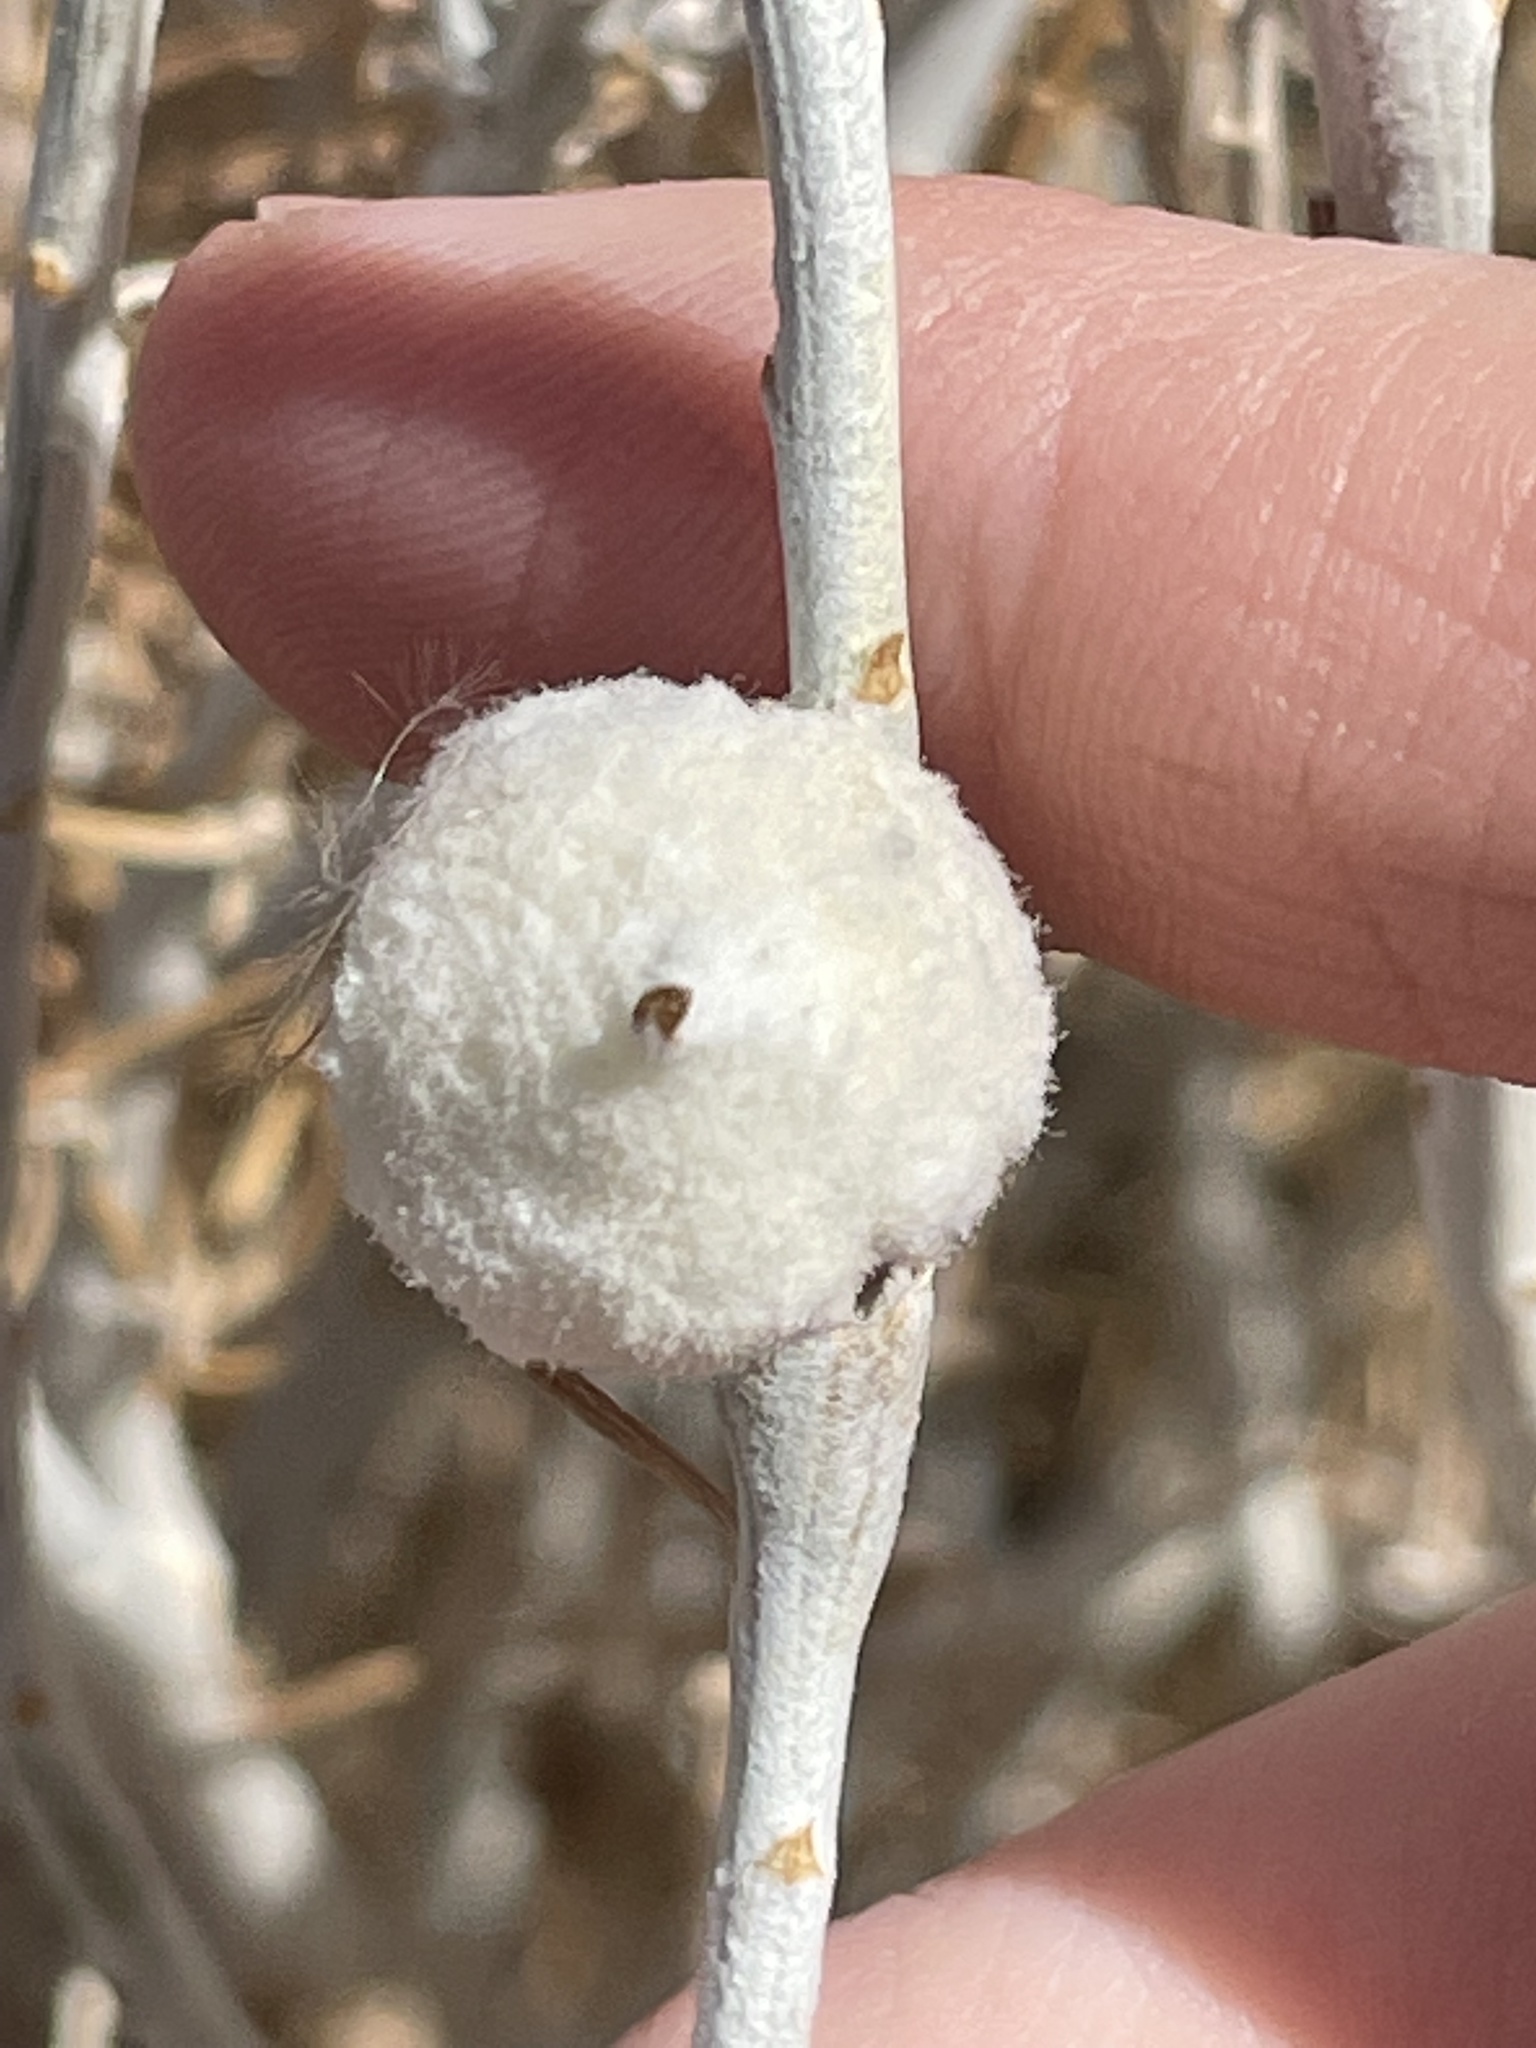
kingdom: Animalia
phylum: Arthropoda
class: Insecta
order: Diptera
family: Tephritidae
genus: Aciurina
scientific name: Aciurina bigeloviae
